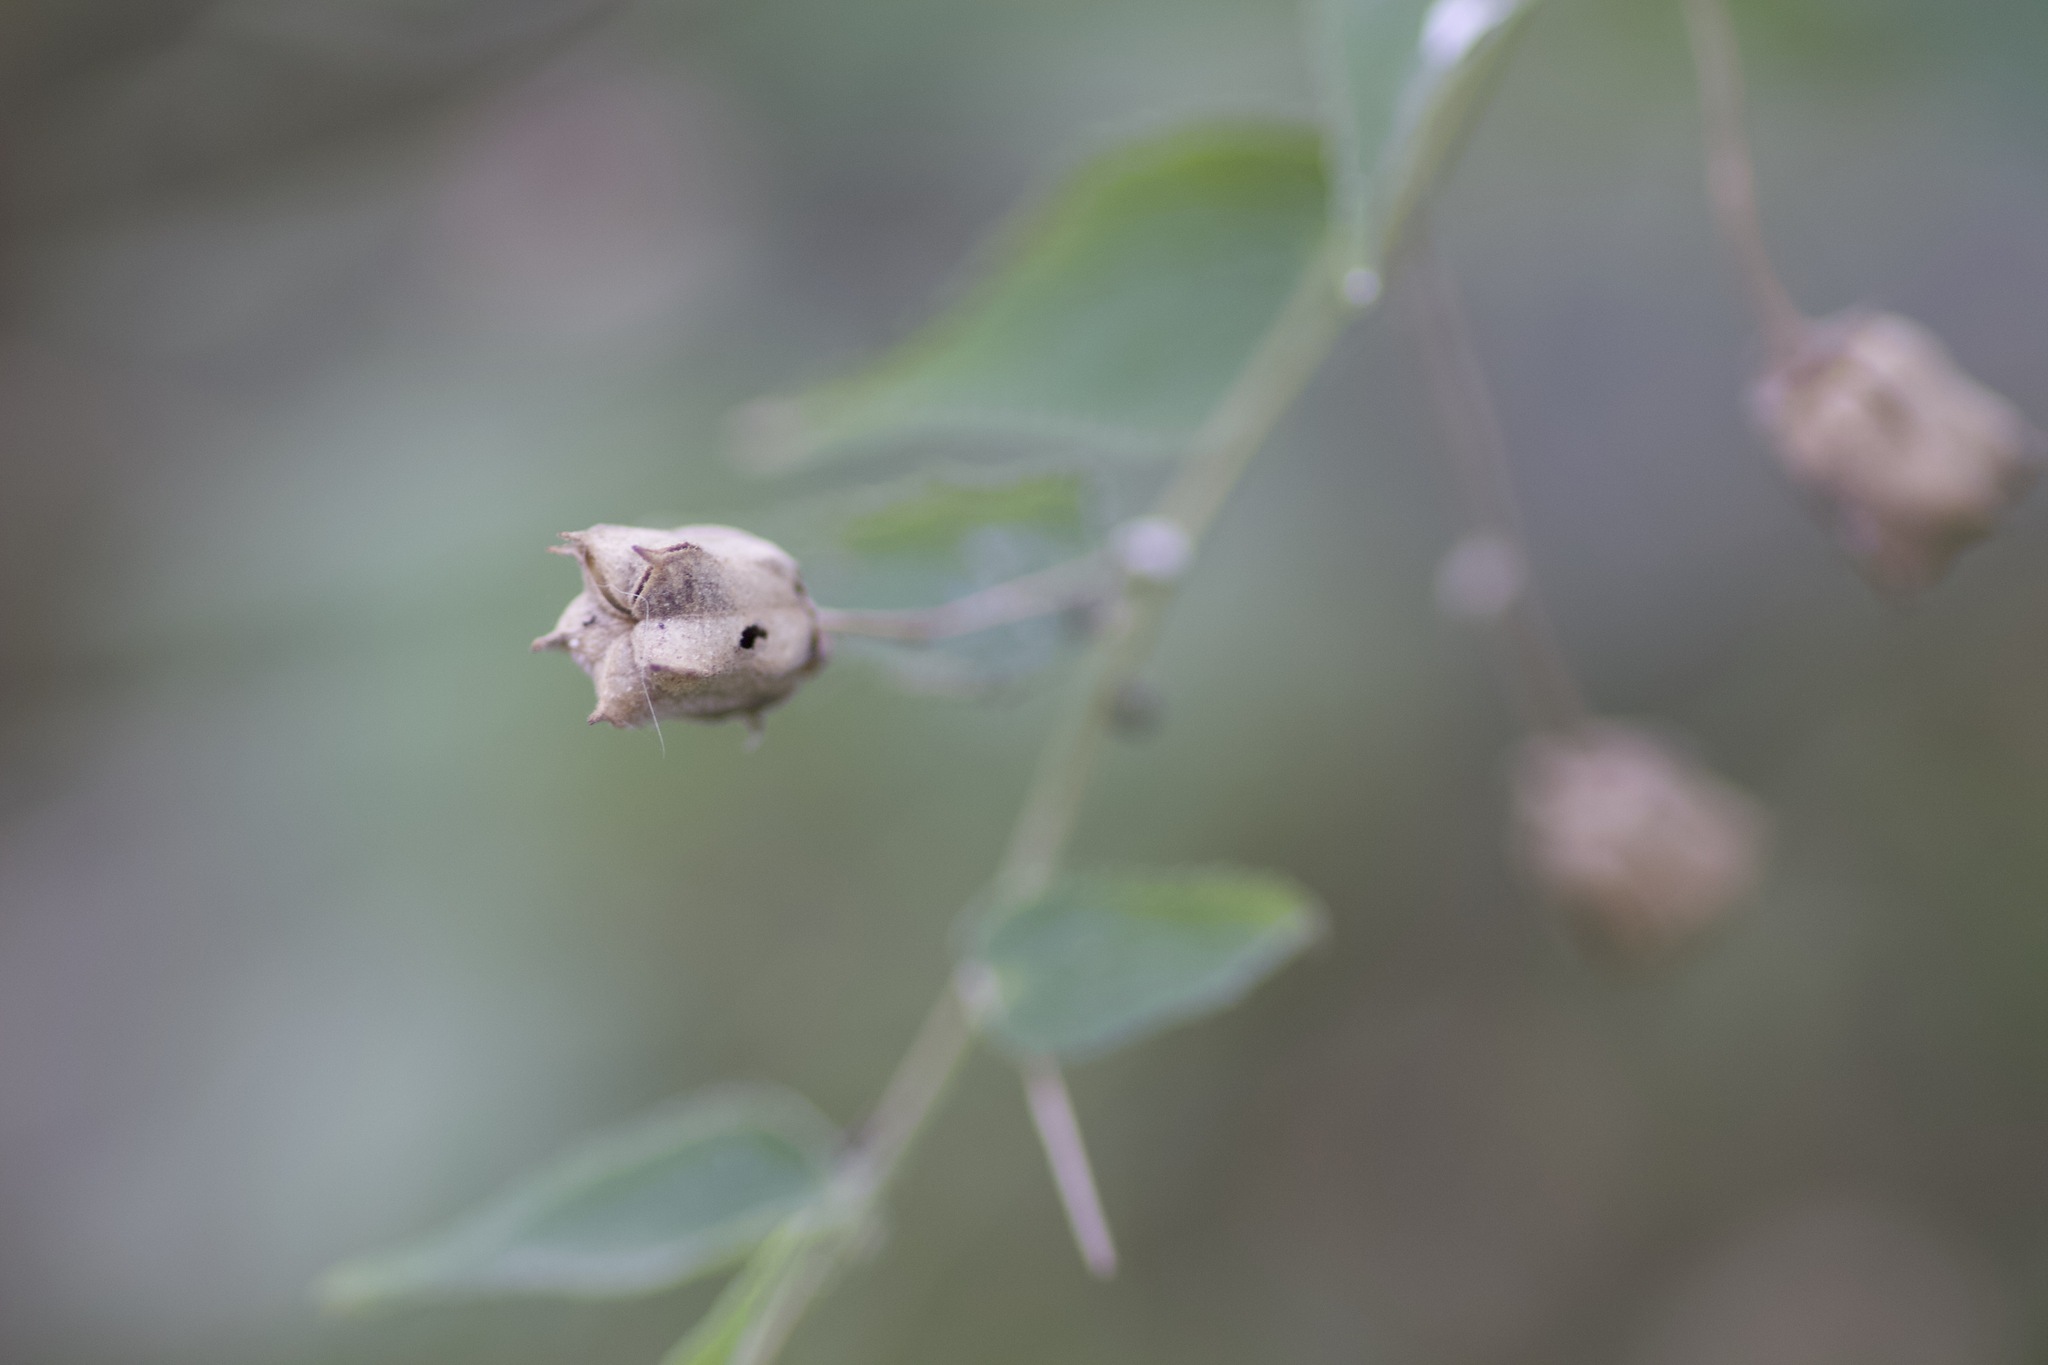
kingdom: Plantae
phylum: Tracheophyta
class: Magnoliopsida
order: Malvales
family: Malvaceae
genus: Abutilon
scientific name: Abutilon trisulcatum
